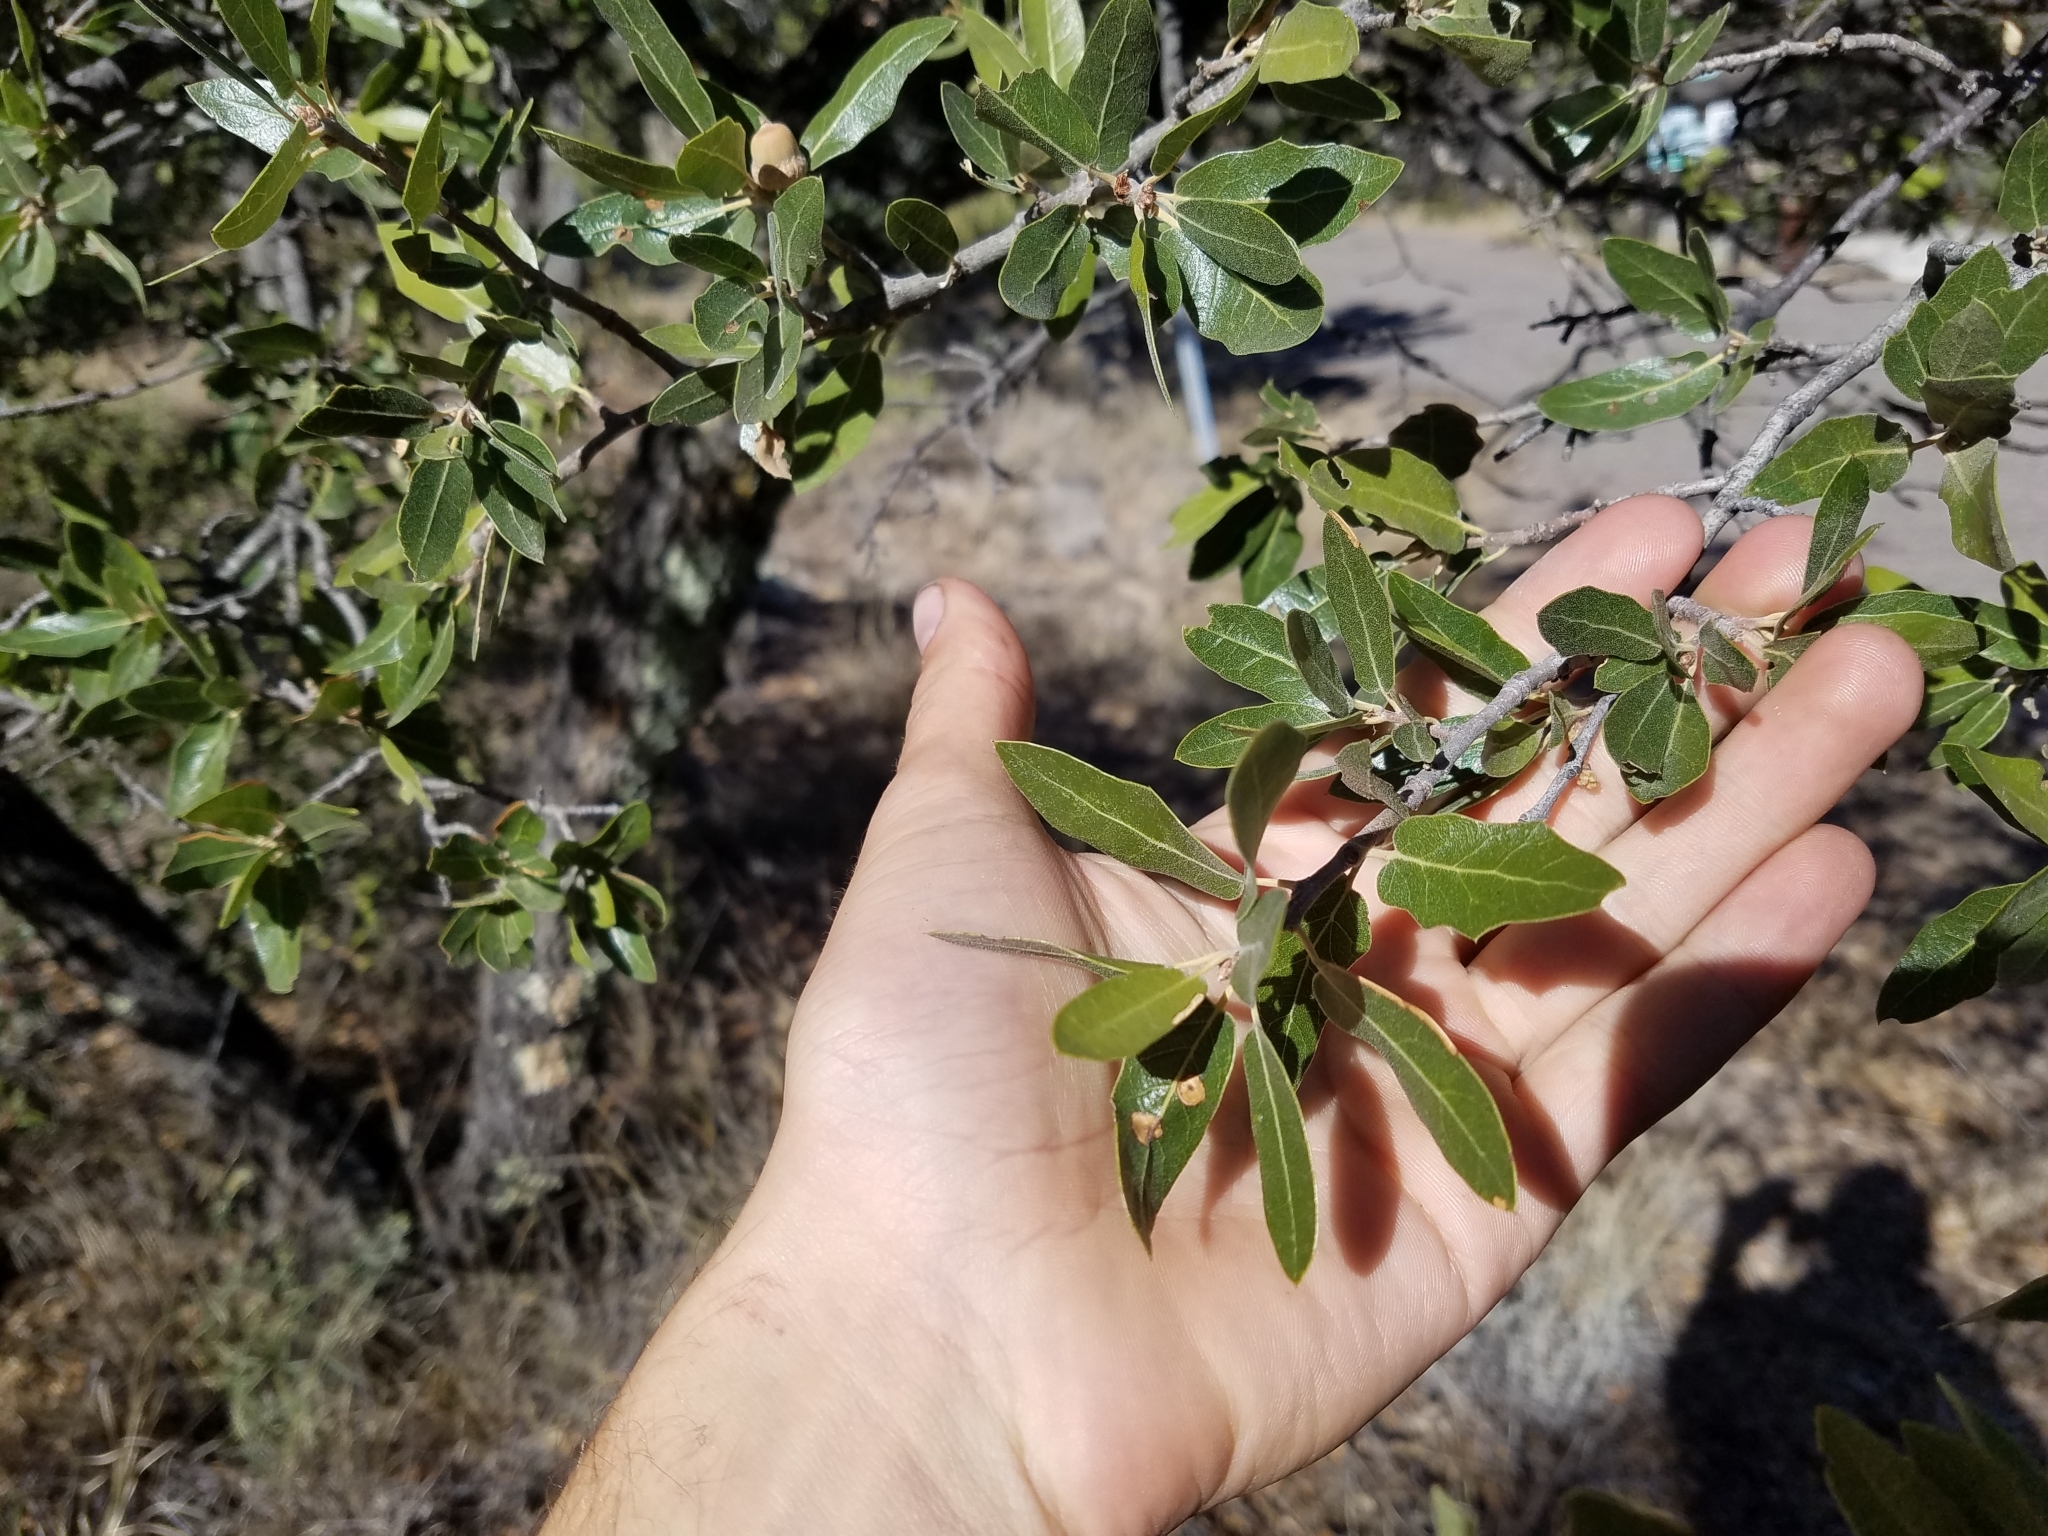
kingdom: Plantae
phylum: Tracheophyta
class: Magnoliopsida
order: Fagales
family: Fagaceae
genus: Quercus
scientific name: Quercus emoryi
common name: Emory oak
